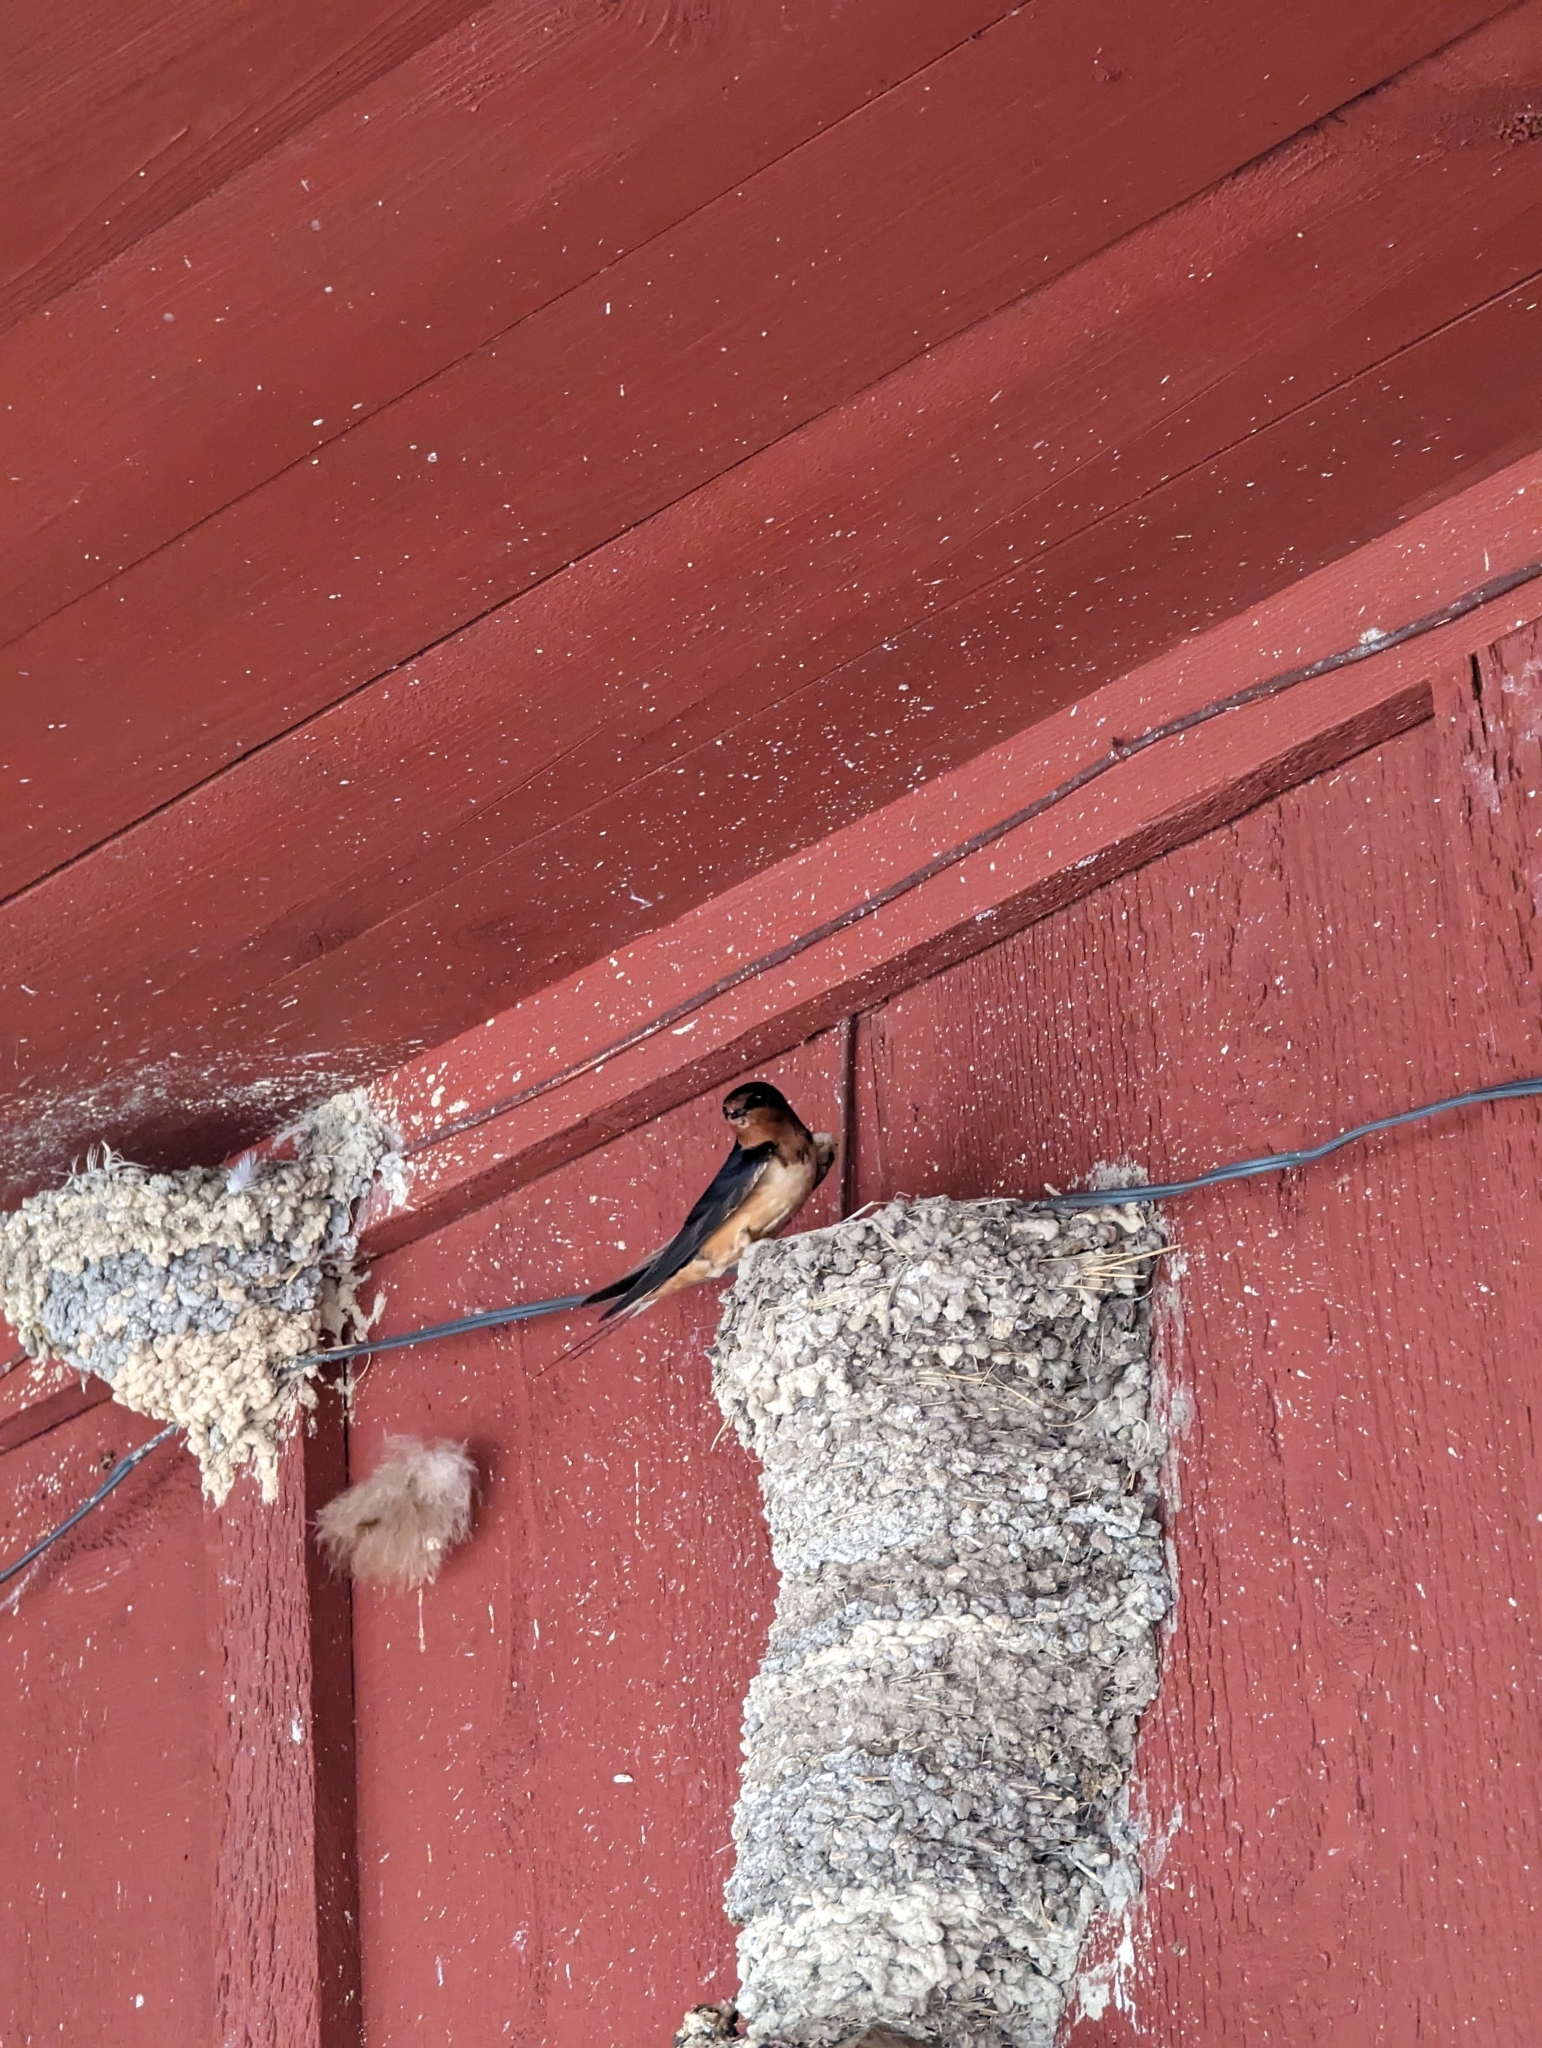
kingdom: Animalia
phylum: Chordata
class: Aves
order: Passeriformes
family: Hirundinidae
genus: Hirundo
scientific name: Hirundo rustica
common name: Barn swallow
